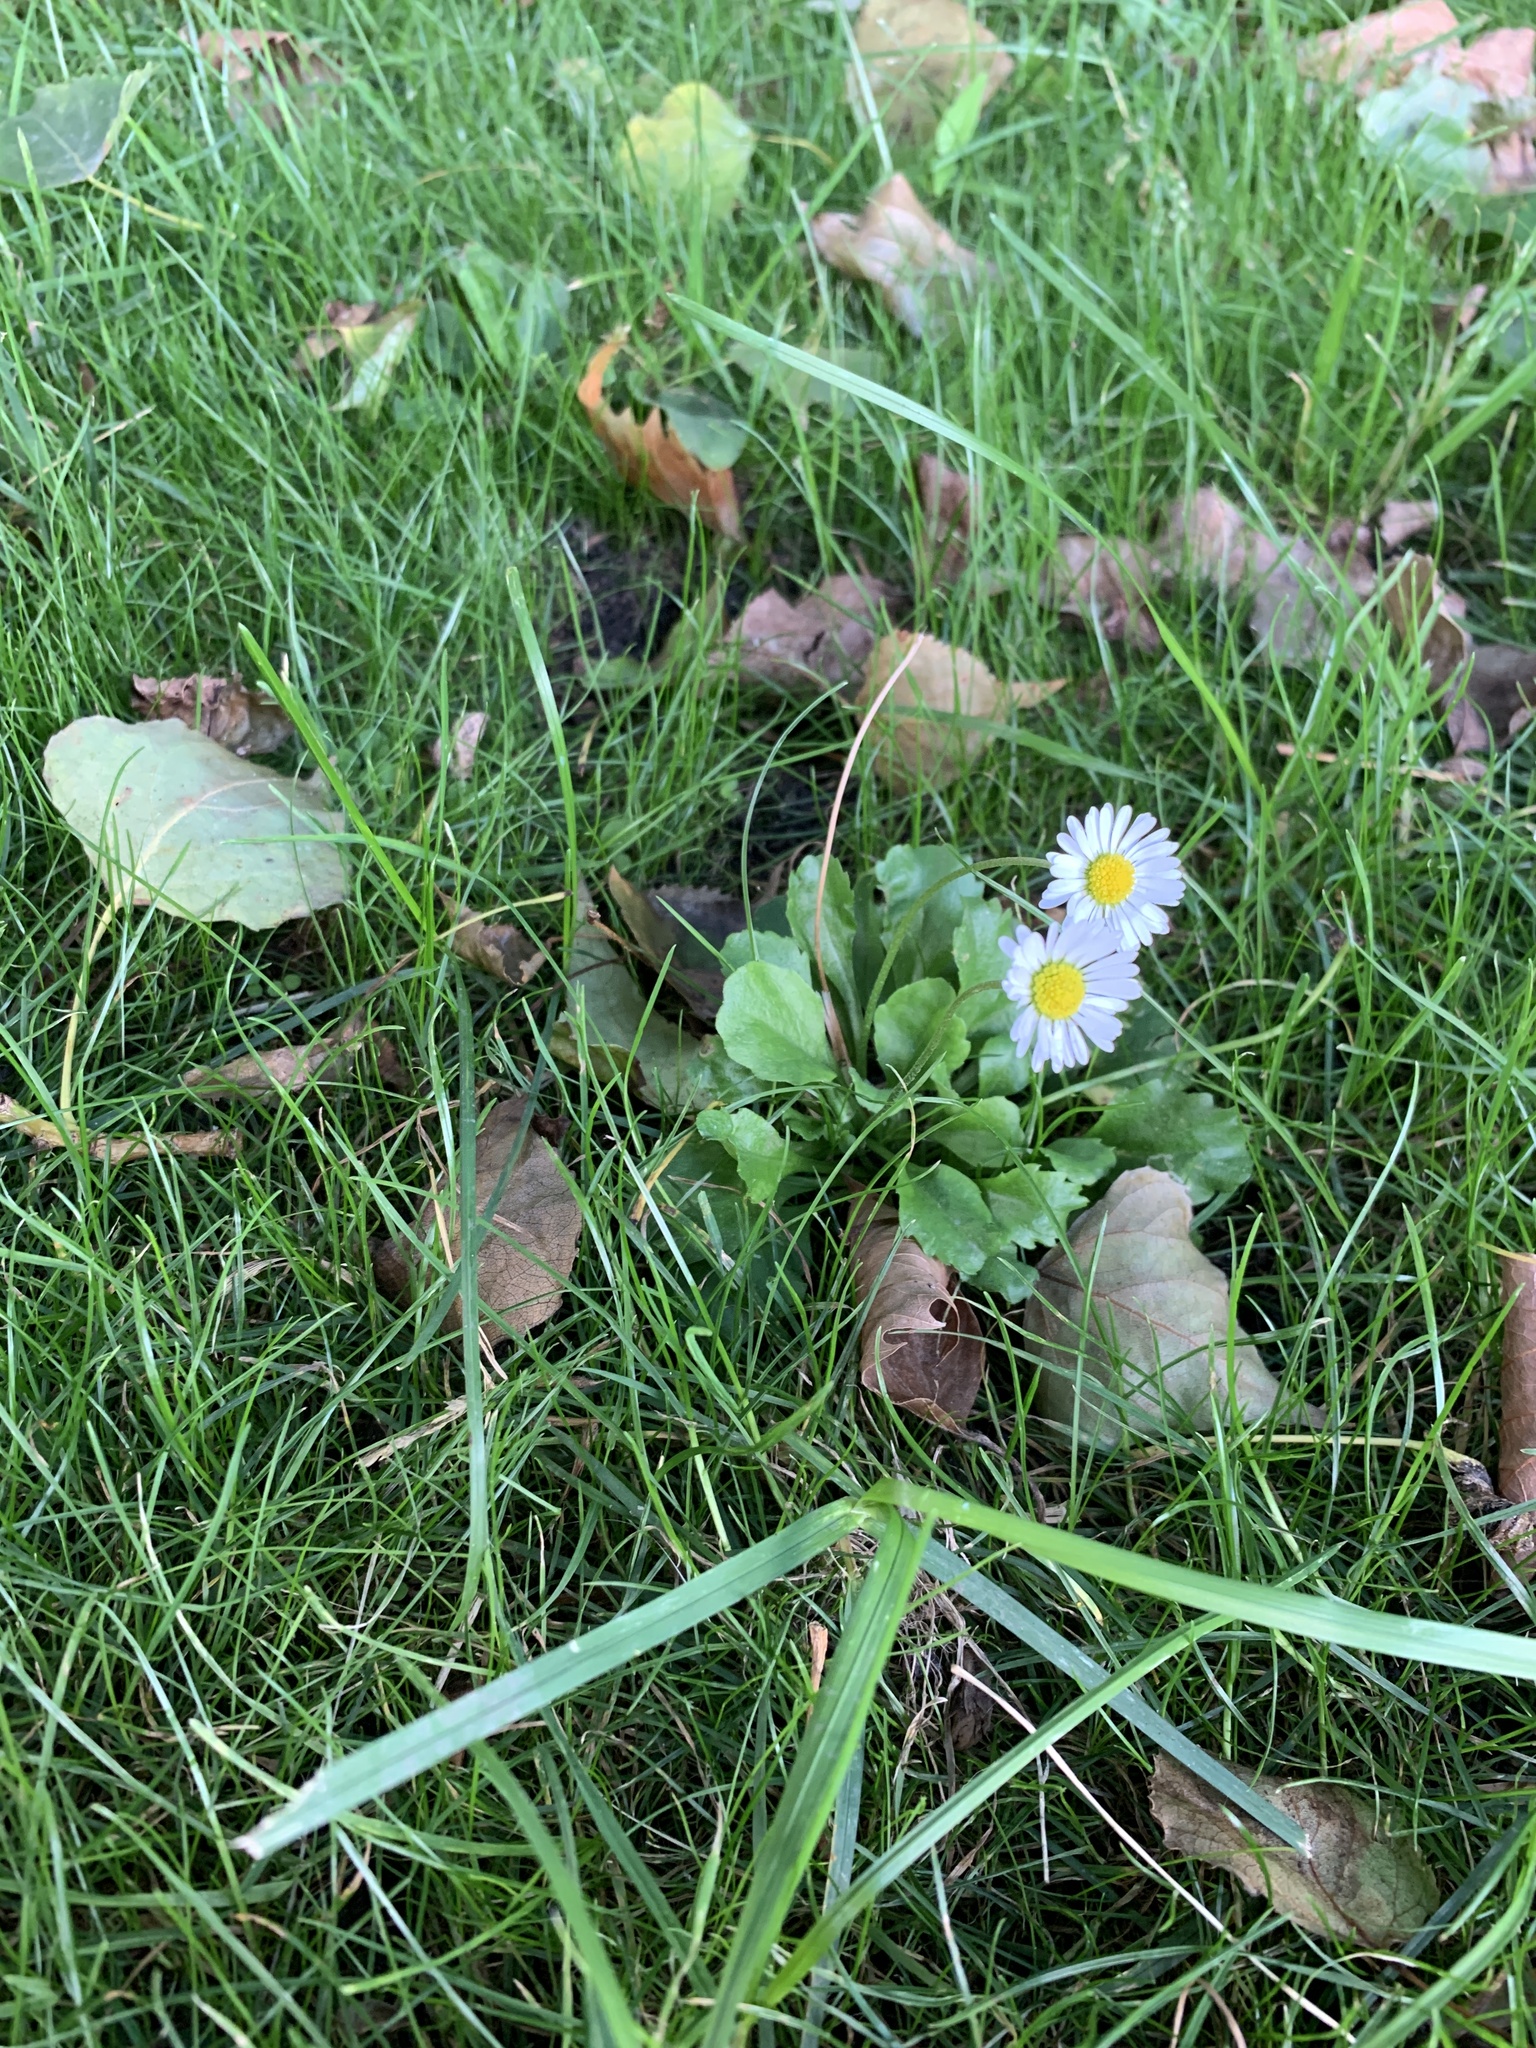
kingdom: Plantae
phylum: Tracheophyta
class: Magnoliopsida
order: Asterales
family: Asteraceae
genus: Bellis
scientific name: Bellis perennis
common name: Lawndaisy
